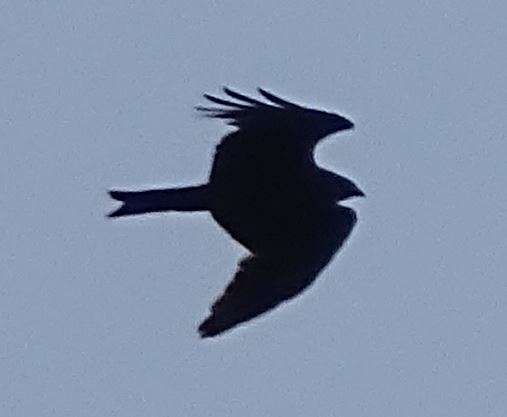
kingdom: Animalia
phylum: Chordata
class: Aves
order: Accipitriformes
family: Accipitridae
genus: Milvus
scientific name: Milvus milvus
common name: Red kite
